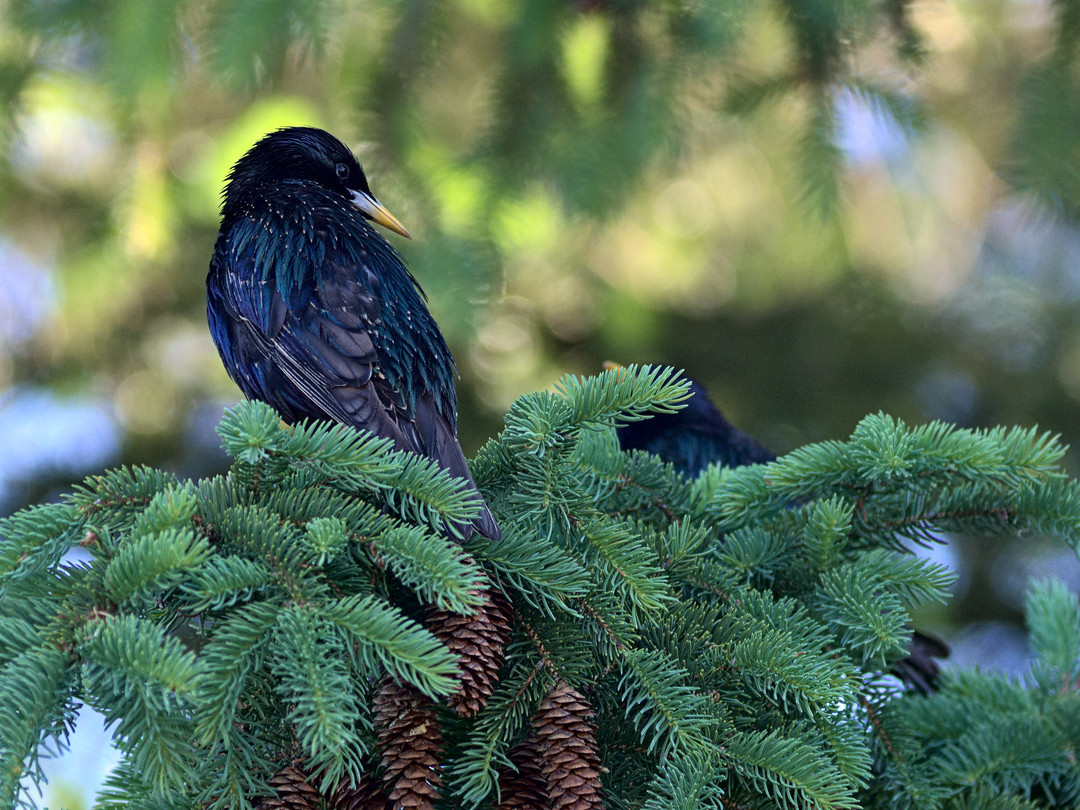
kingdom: Animalia
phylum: Chordata
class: Aves
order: Passeriformes
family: Sturnidae
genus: Sturnus
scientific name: Sturnus vulgaris
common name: Common starling
